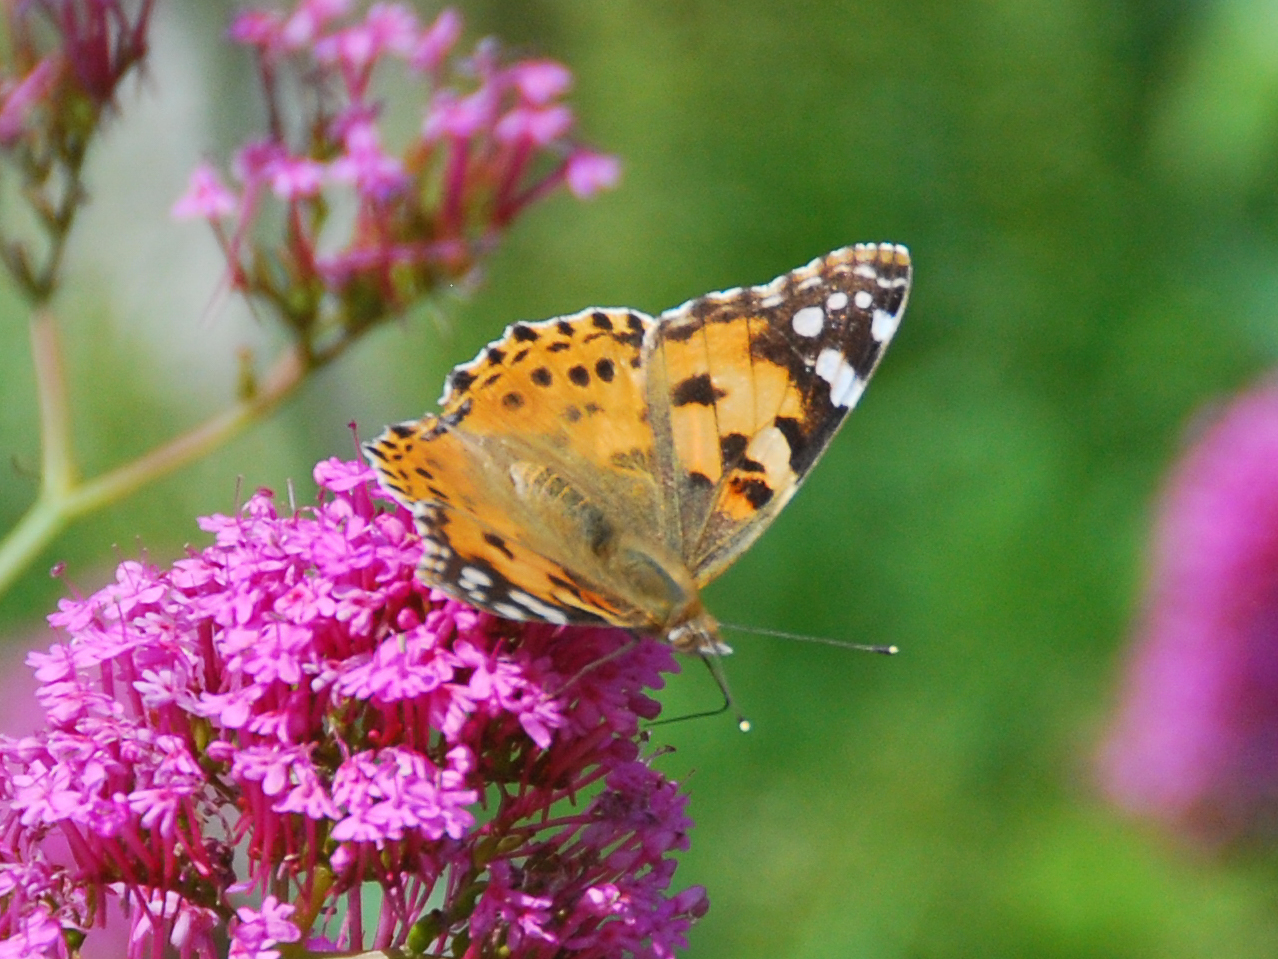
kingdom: Animalia
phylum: Arthropoda
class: Insecta
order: Lepidoptera
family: Nymphalidae
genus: Vanessa
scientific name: Vanessa cardui
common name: Painted lady
